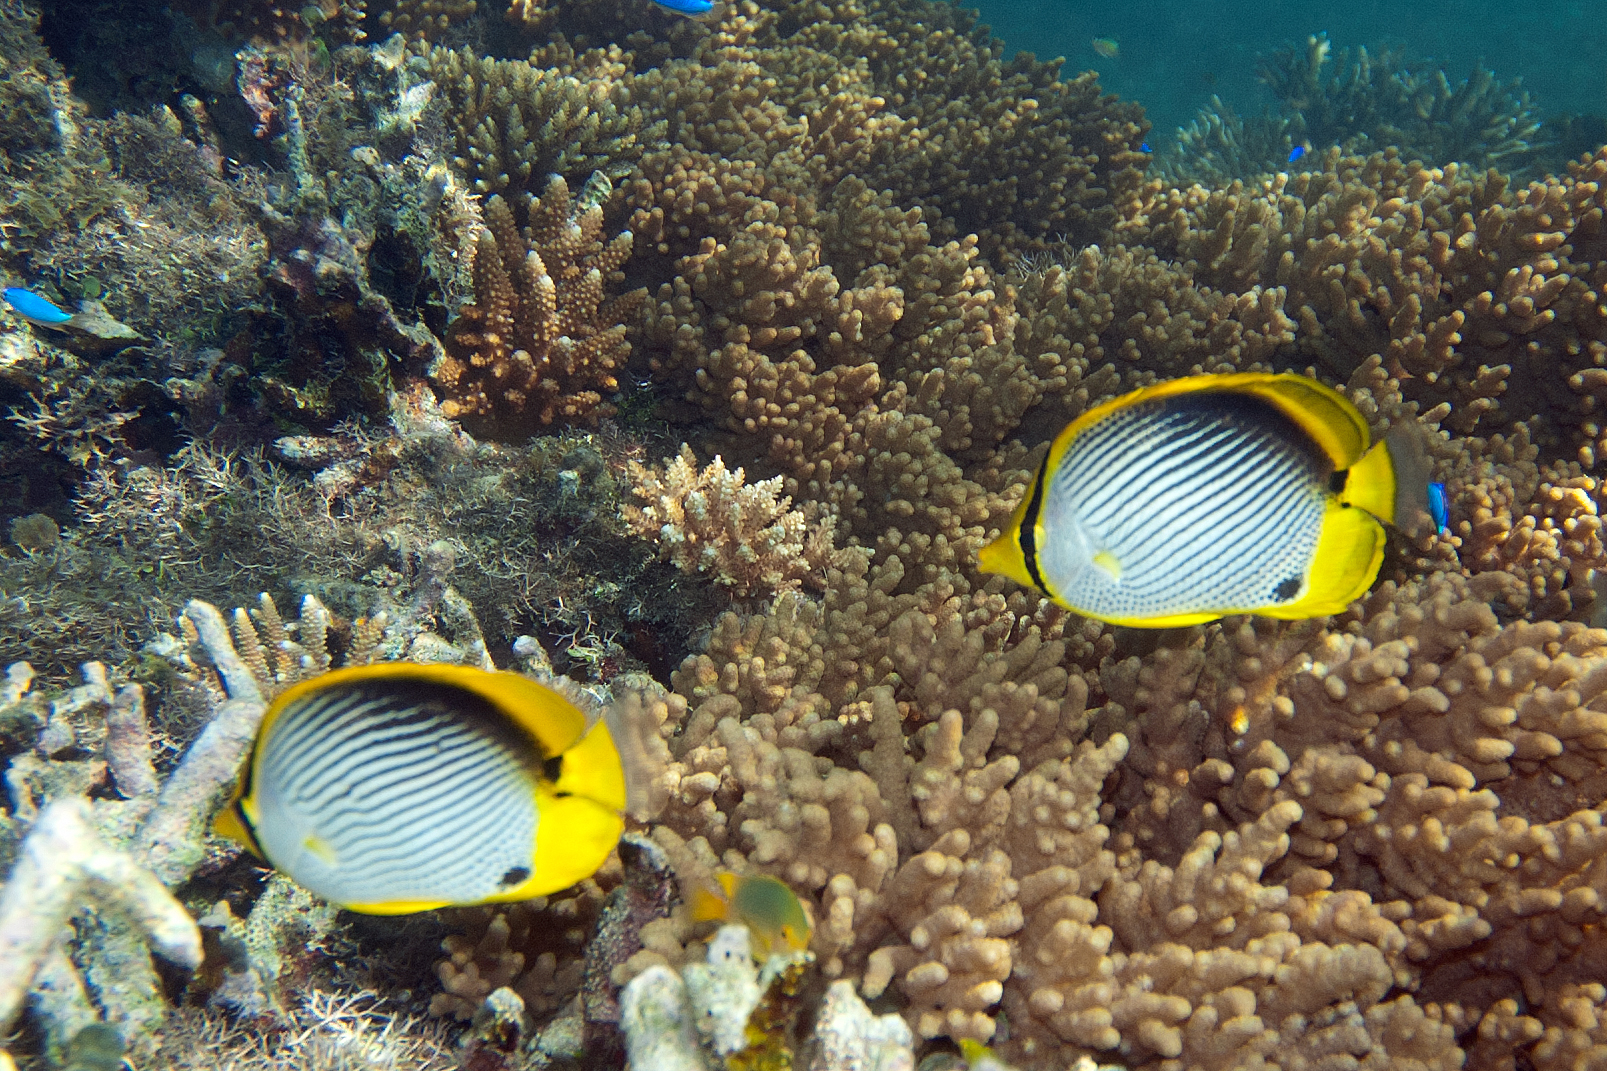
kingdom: Animalia
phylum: Chordata
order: Perciformes
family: Chaetodontidae
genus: Chaetodon
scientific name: Chaetodon melannotus
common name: Blackback butterflyfish
